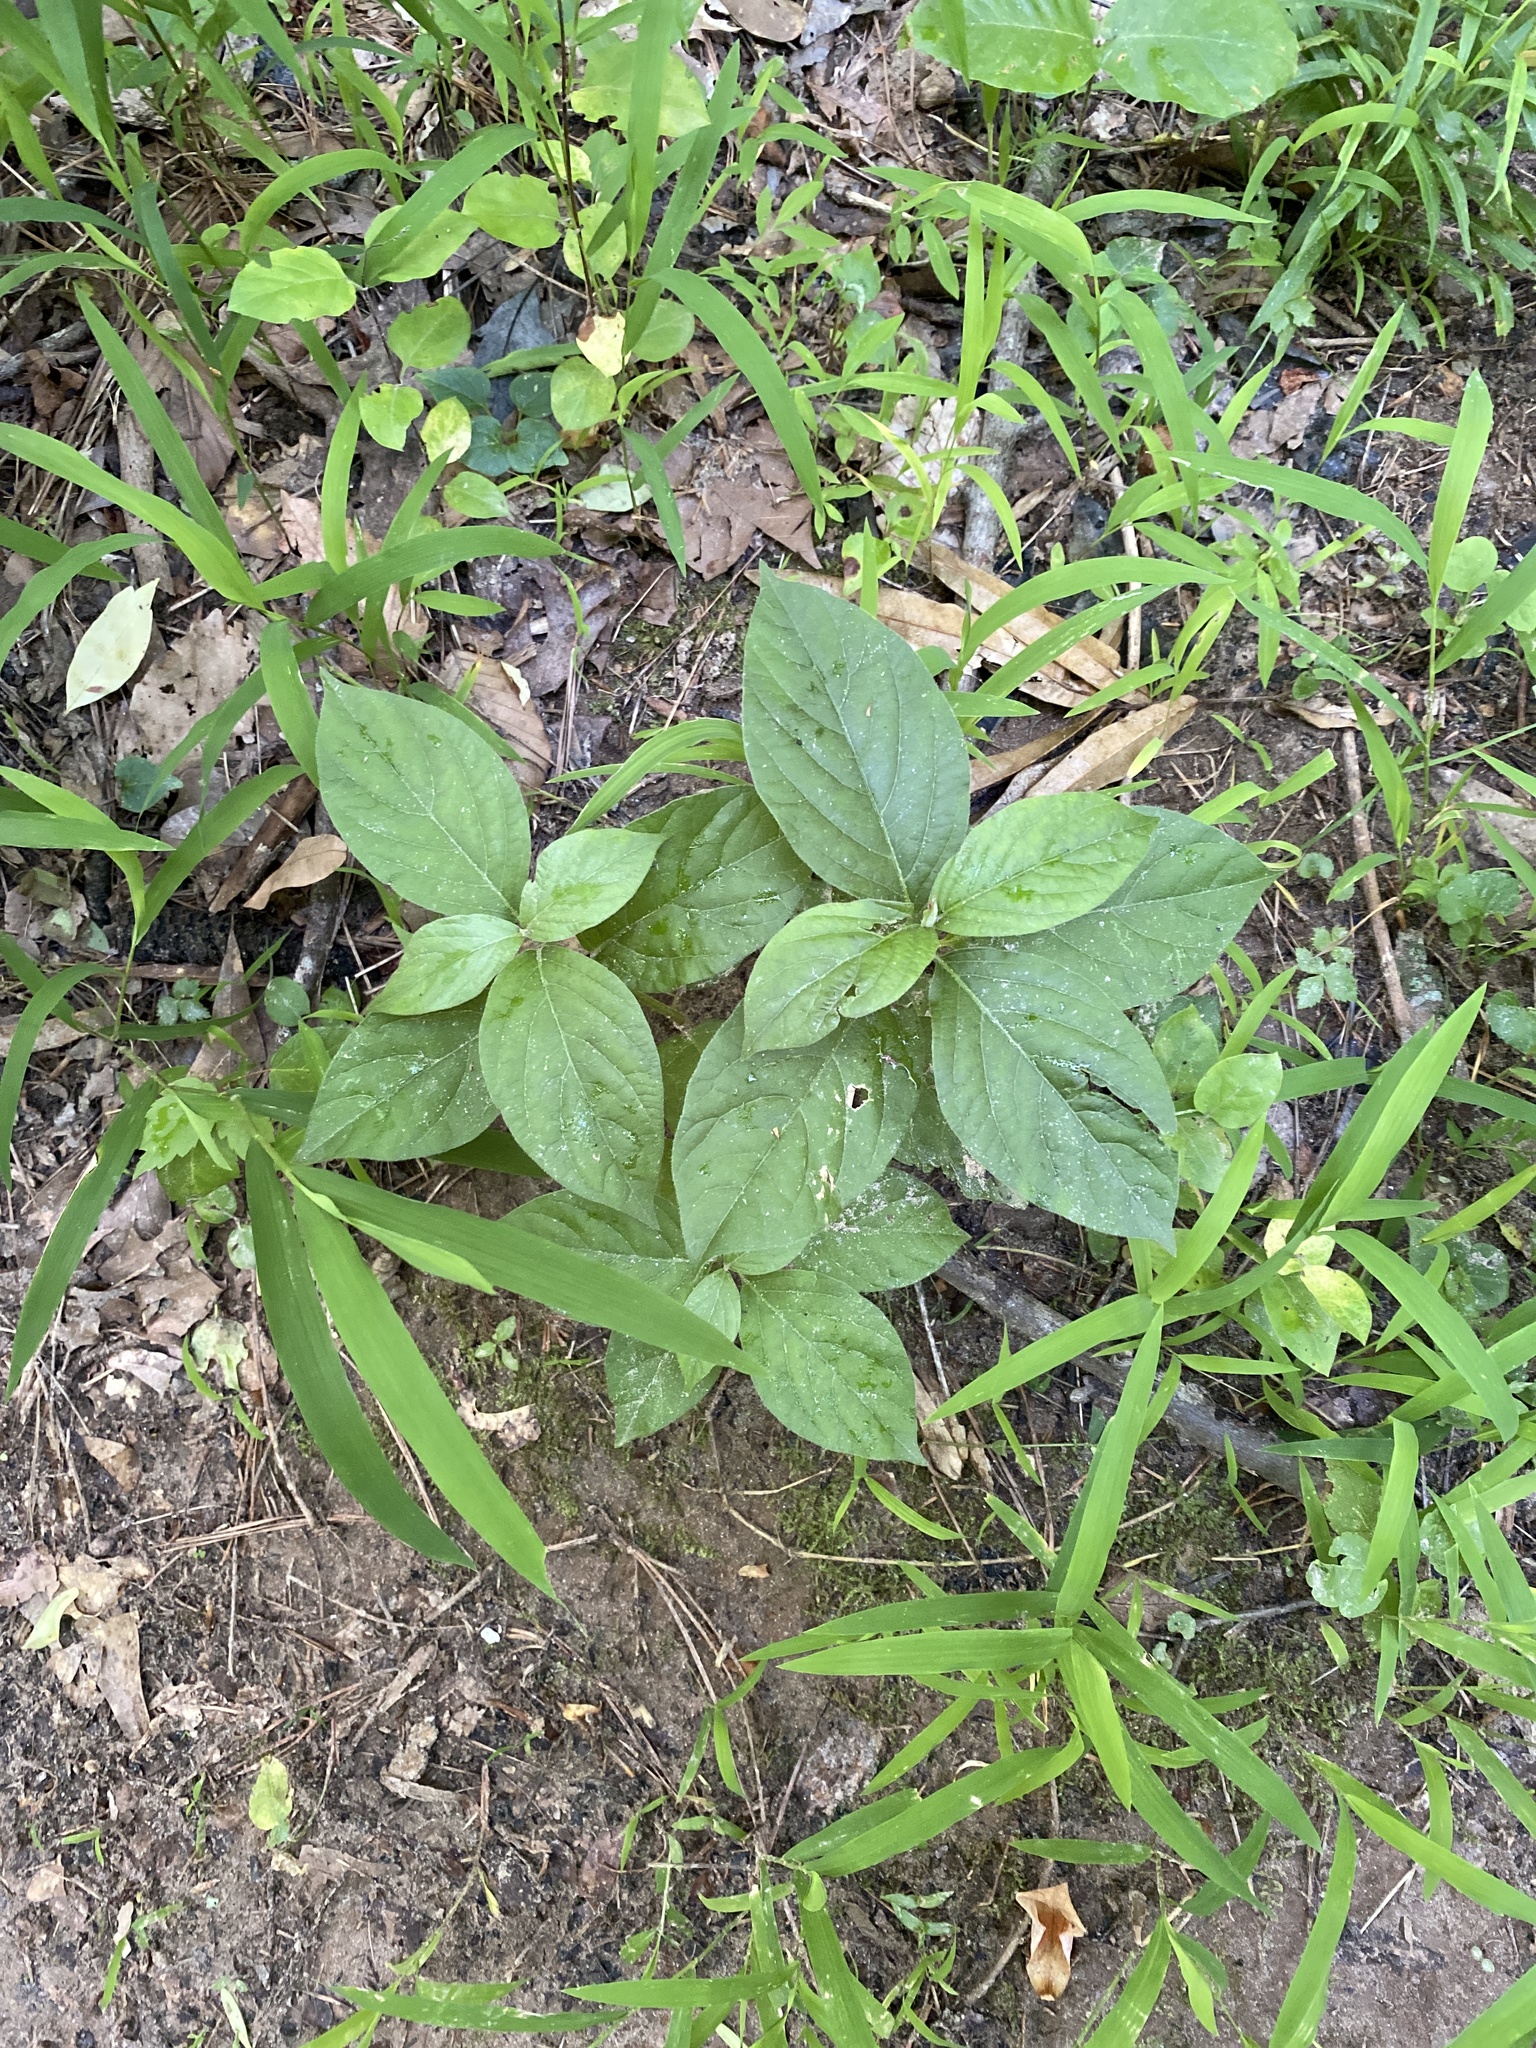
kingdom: Plantae
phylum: Tracheophyta
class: Magnoliopsida
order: Caryophyllales
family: Amaranthaceae
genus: Achyranthes
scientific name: Achyranthes bidentata
